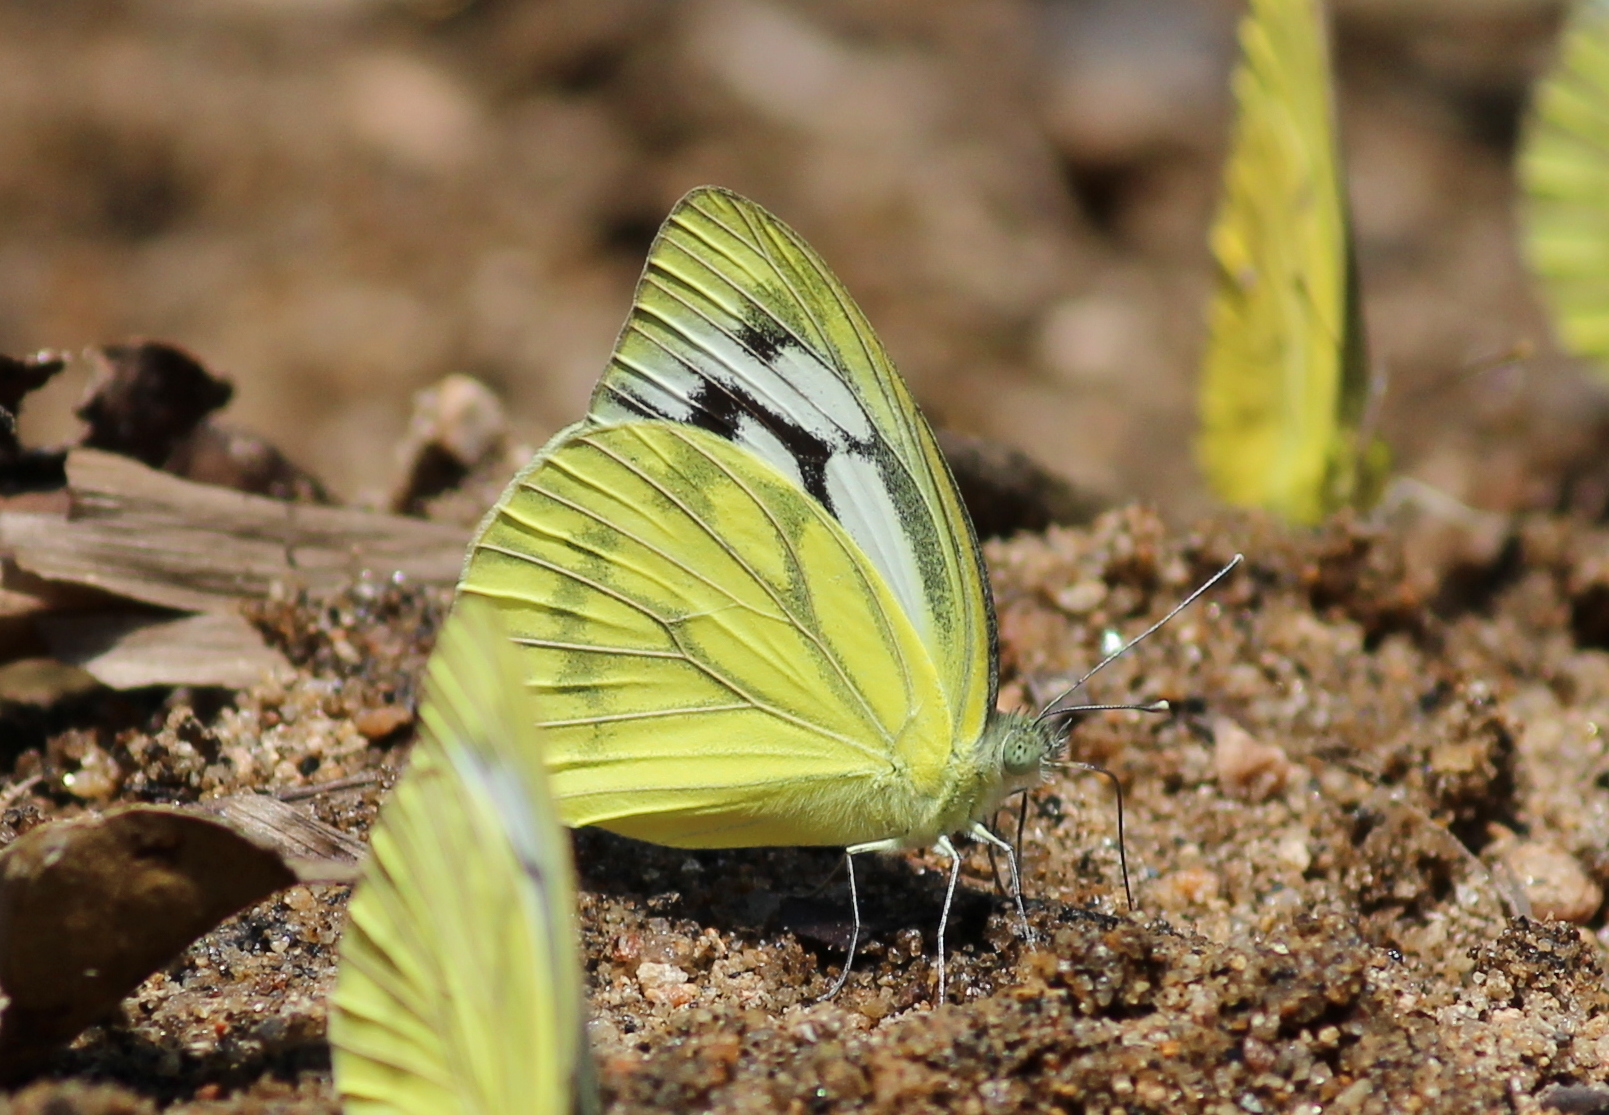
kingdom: Animalia
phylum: Arthropoda
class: Insecta
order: Lepidoptera
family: Pieridae
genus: Cepora
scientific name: Cepora nerissa
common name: Common gull
